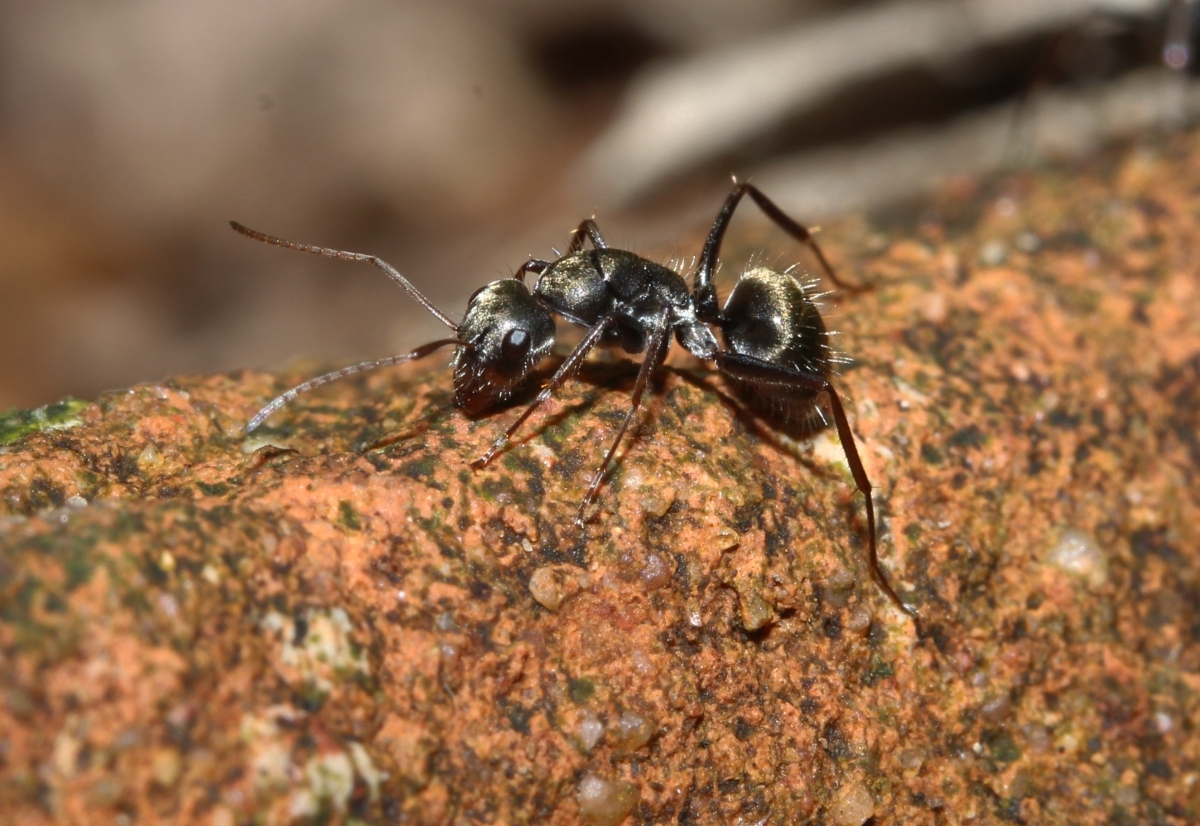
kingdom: Animalia
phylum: Arthropoda
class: Insecta
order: Hymenoptera
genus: Myrmaphaenus
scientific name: Myrmaphaenus
